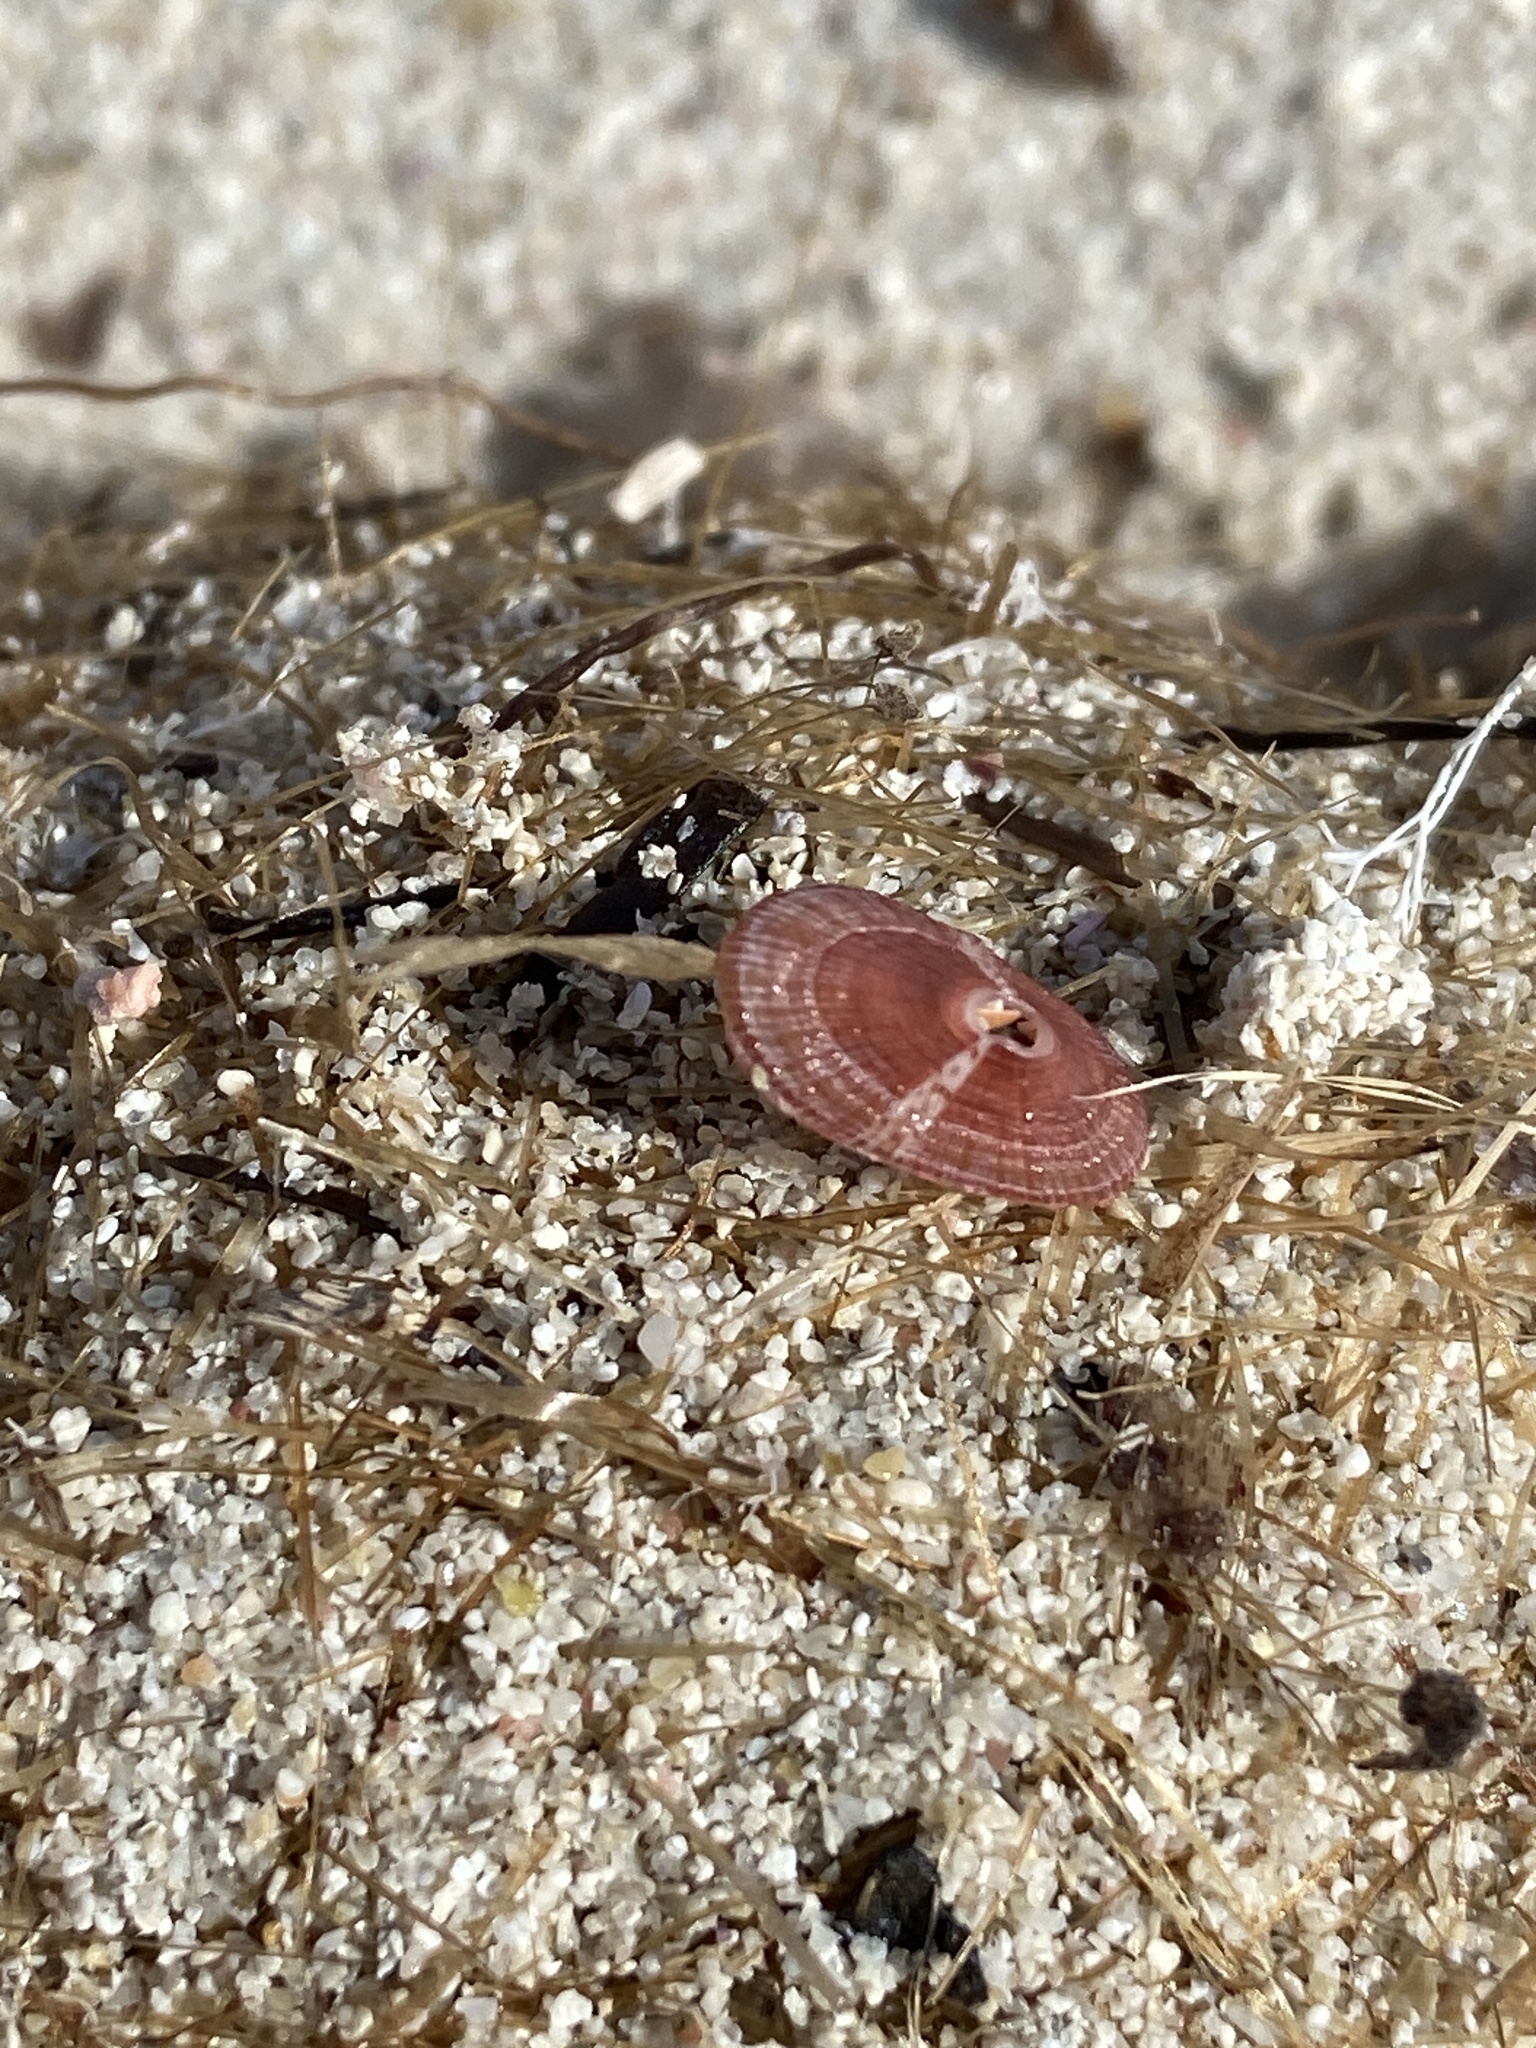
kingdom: Animalia
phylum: Mollusca
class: Gastropoda
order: Lepetellida
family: Fissurellidae
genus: Fissurella
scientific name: Fissurella nubecula
